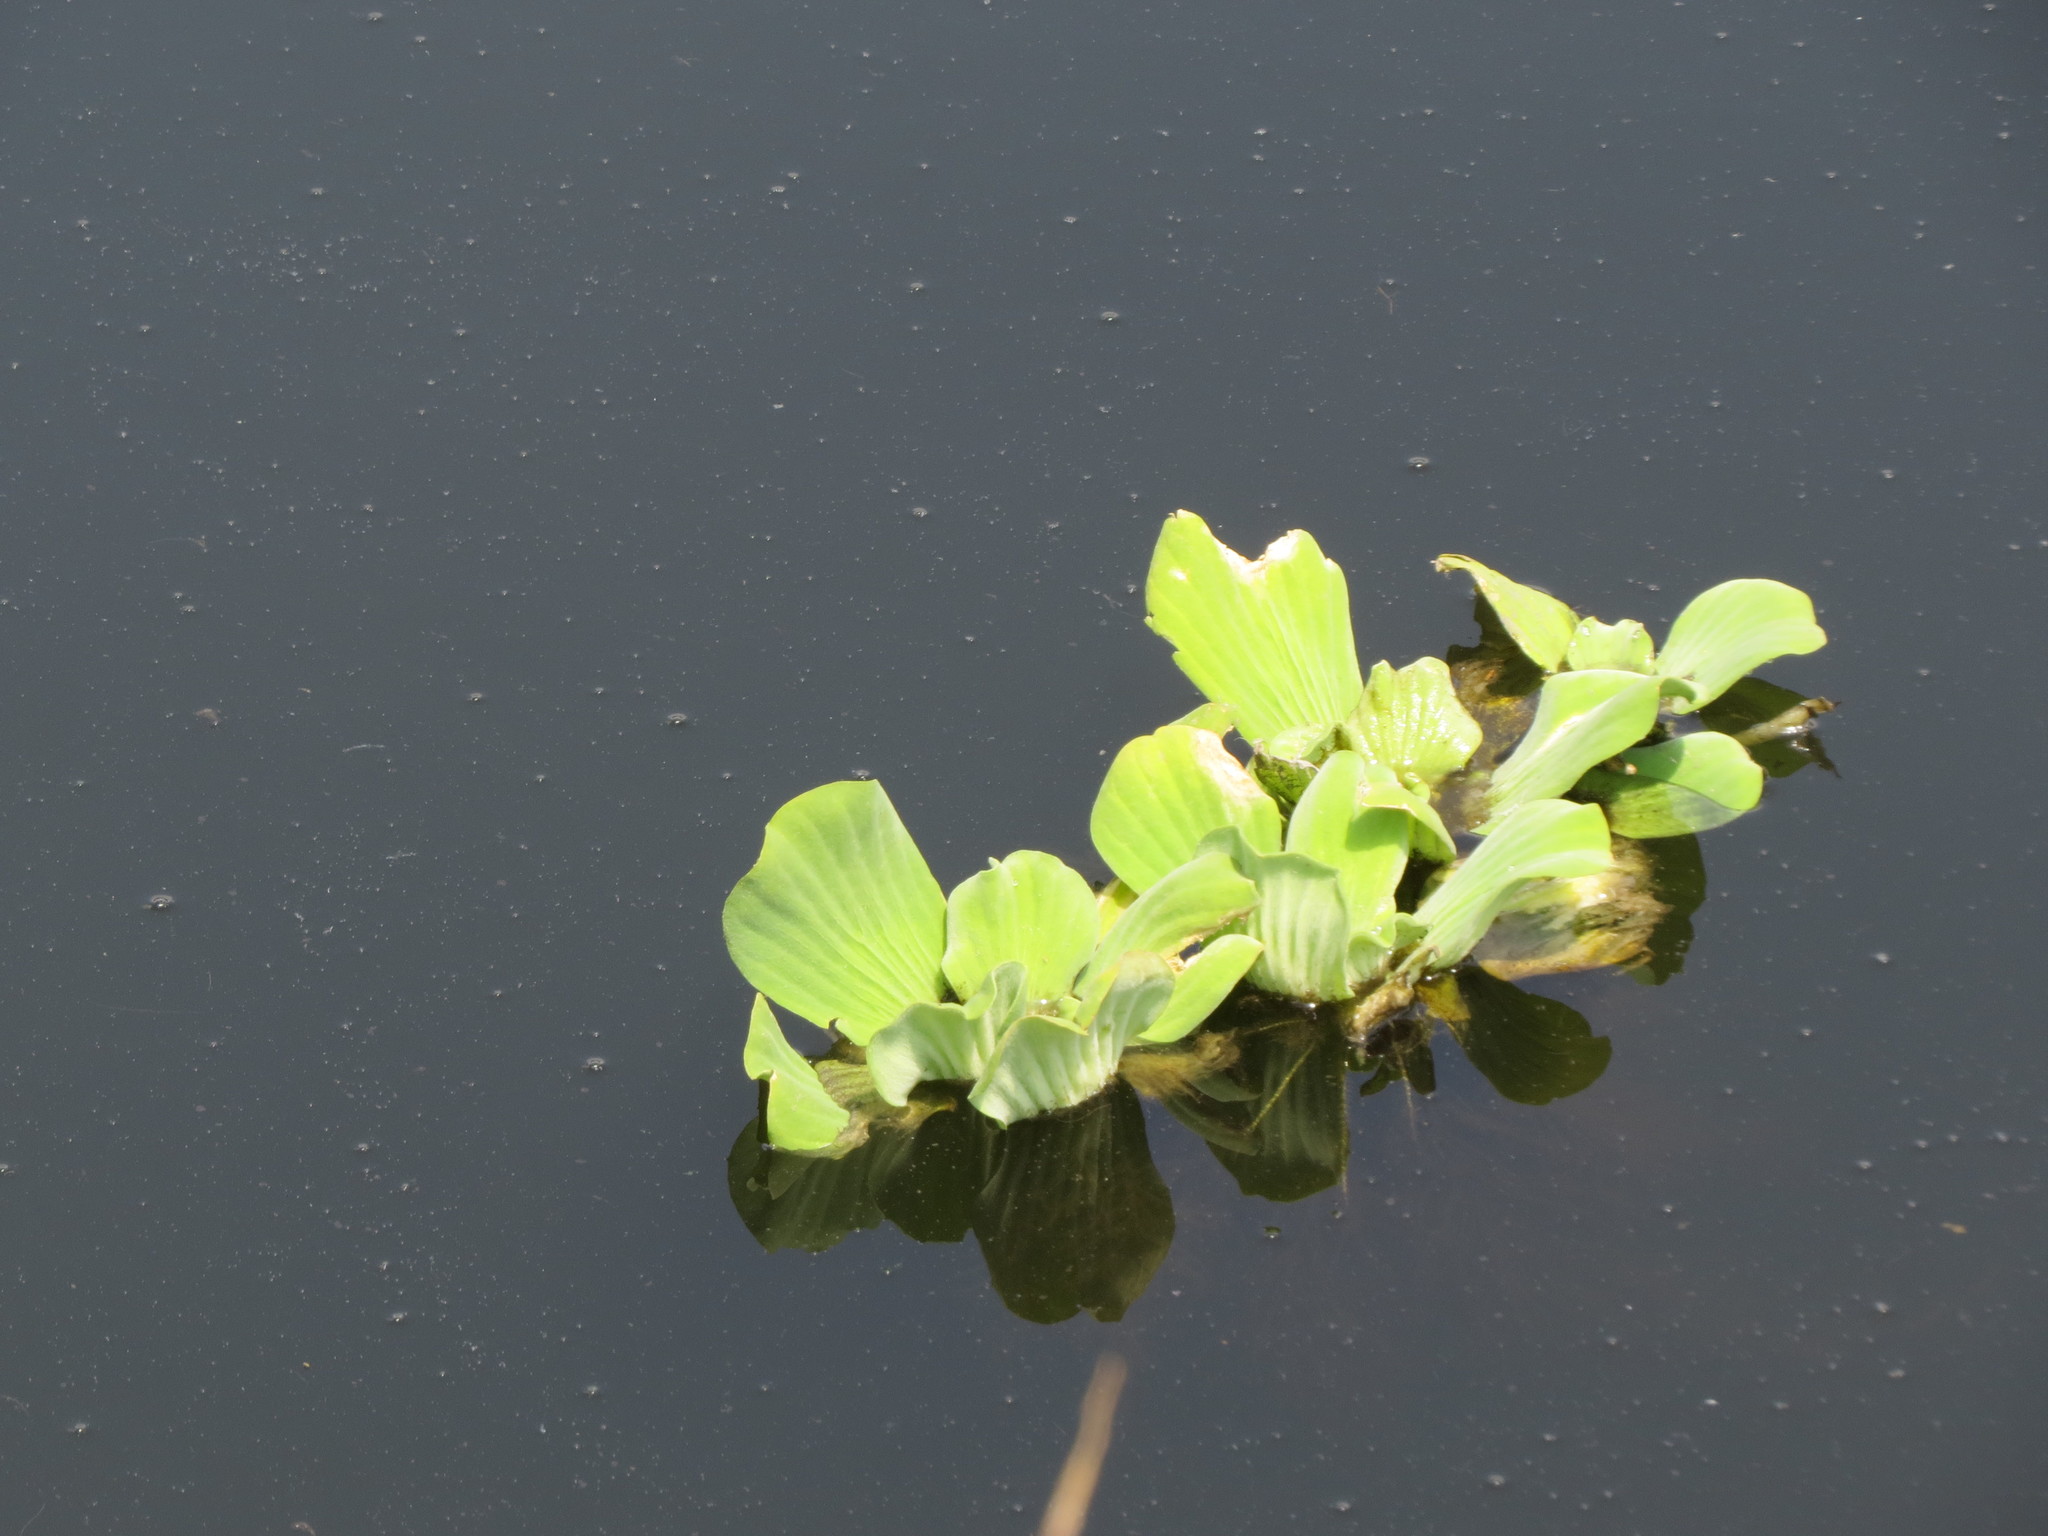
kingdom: Plantae
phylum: Tracheophyta
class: Liliopsida
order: Alismatales
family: Araceae
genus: Pistia
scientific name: Pistia stratiotes
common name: Water lettuce
